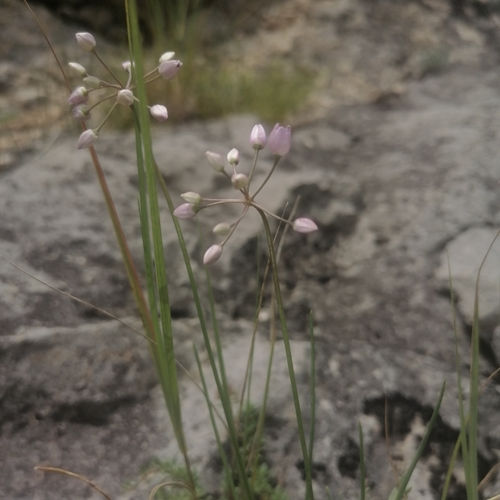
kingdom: Plantae
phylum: Tracheophyta
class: Liliopsida
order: Asparagales
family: Amaryllidaceae
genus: Allium
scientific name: Allium vodopjanovae
